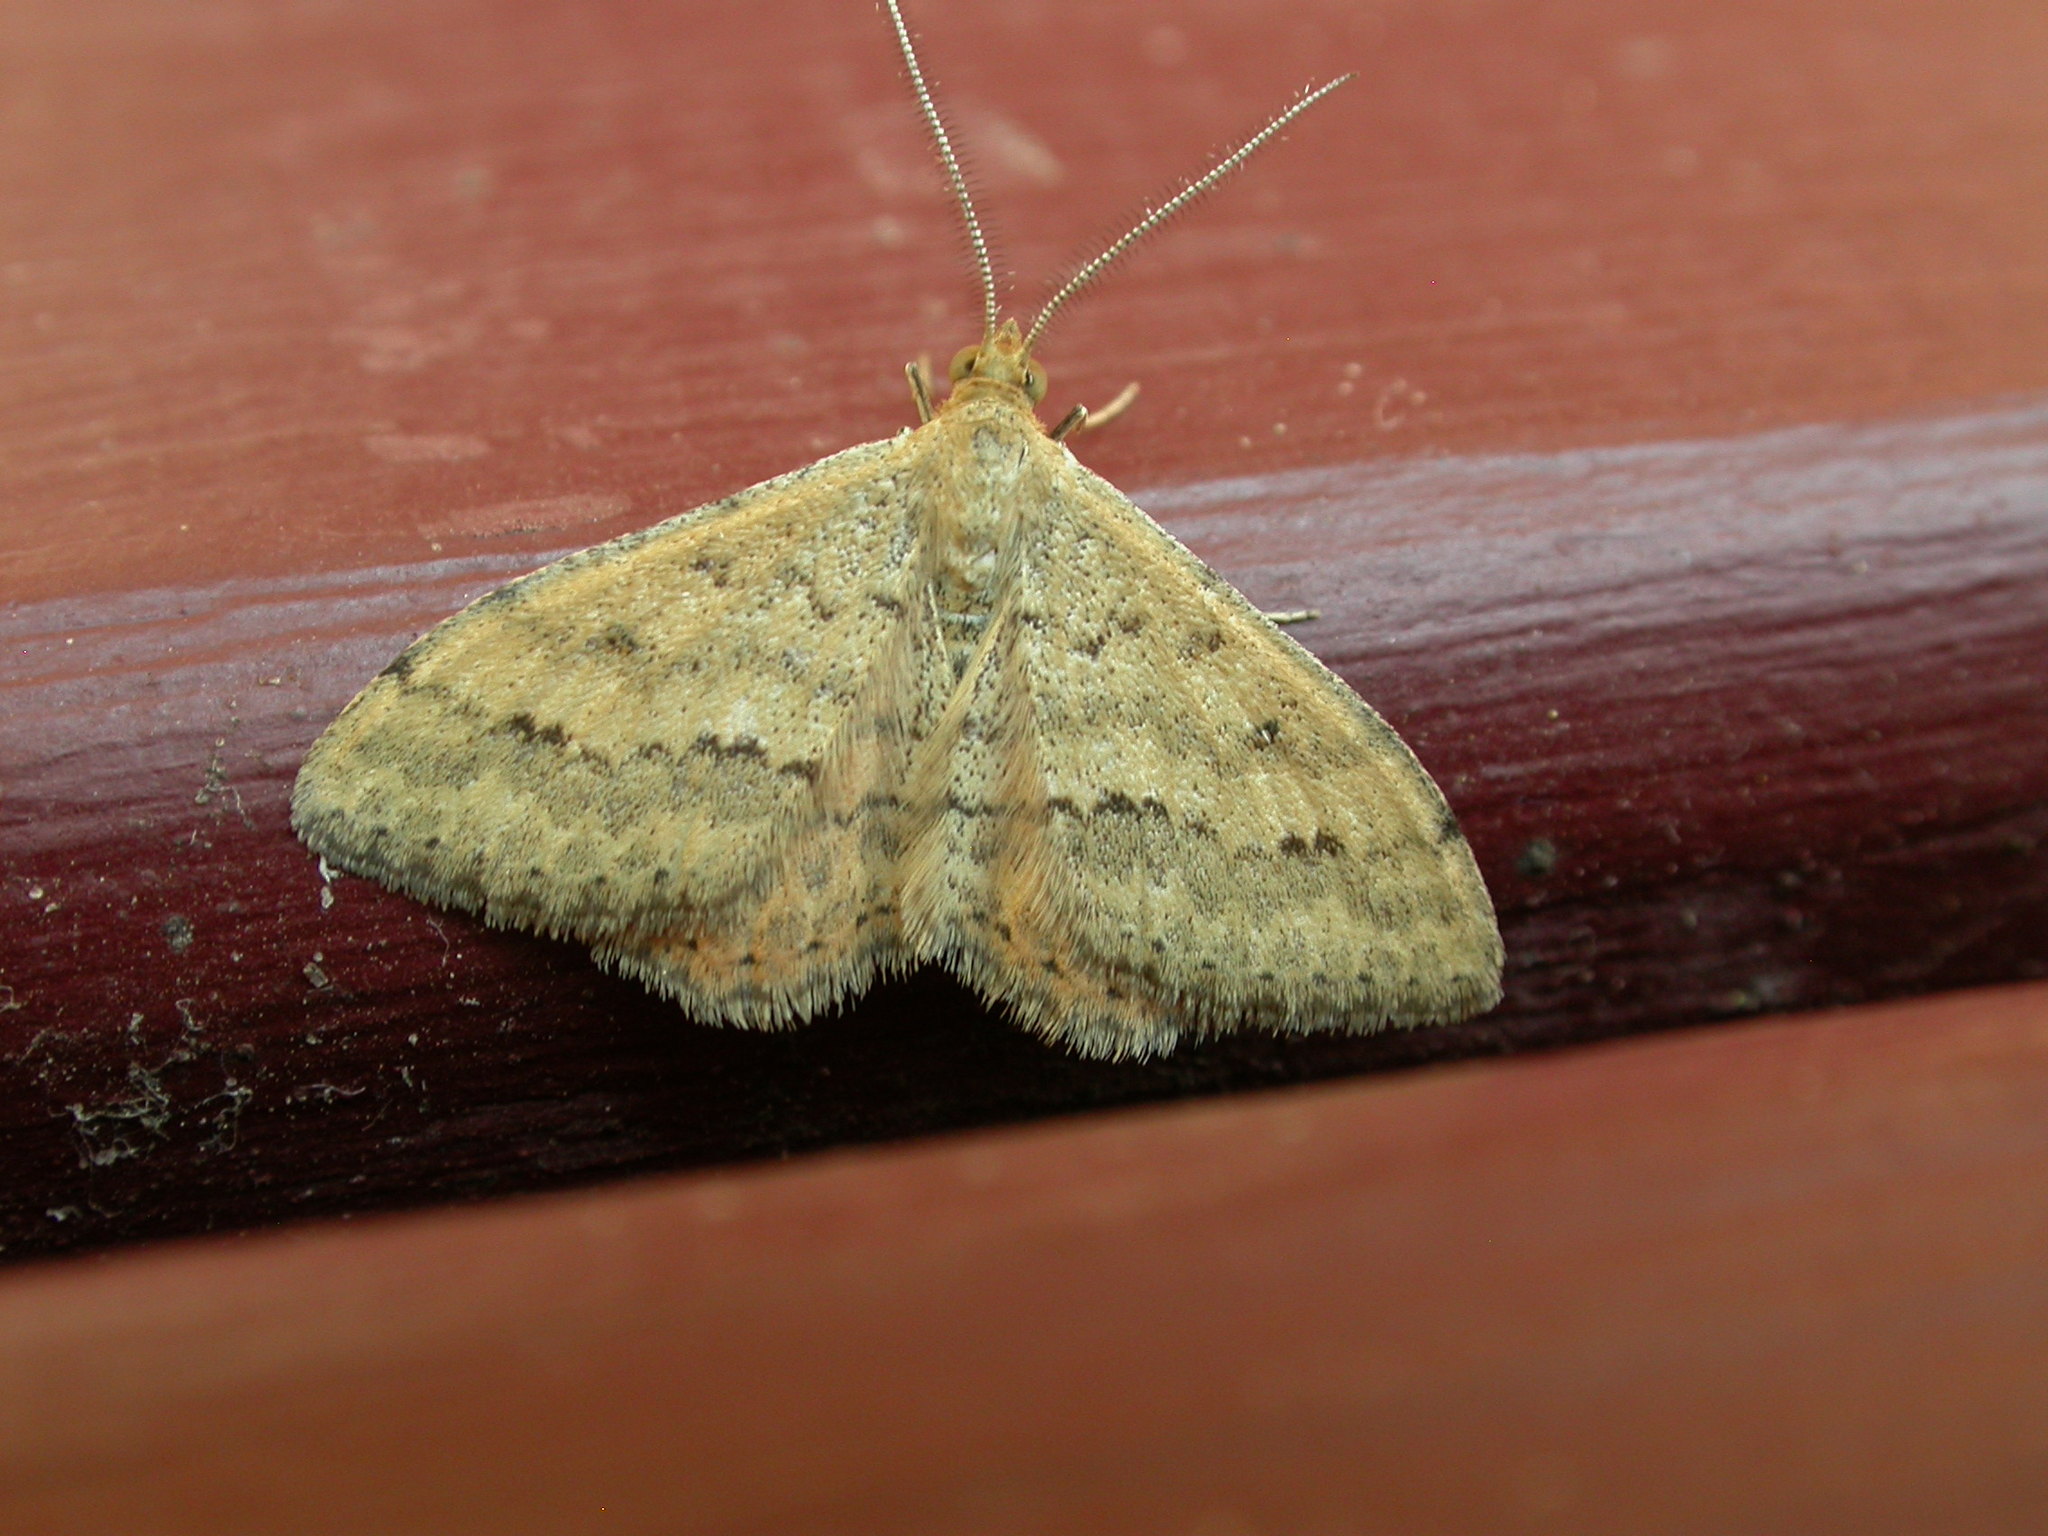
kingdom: Animalia
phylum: Arthropoda
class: Insecta
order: Lepidoptera
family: Geometridae
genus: Scopula
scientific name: Scopula rubraria
